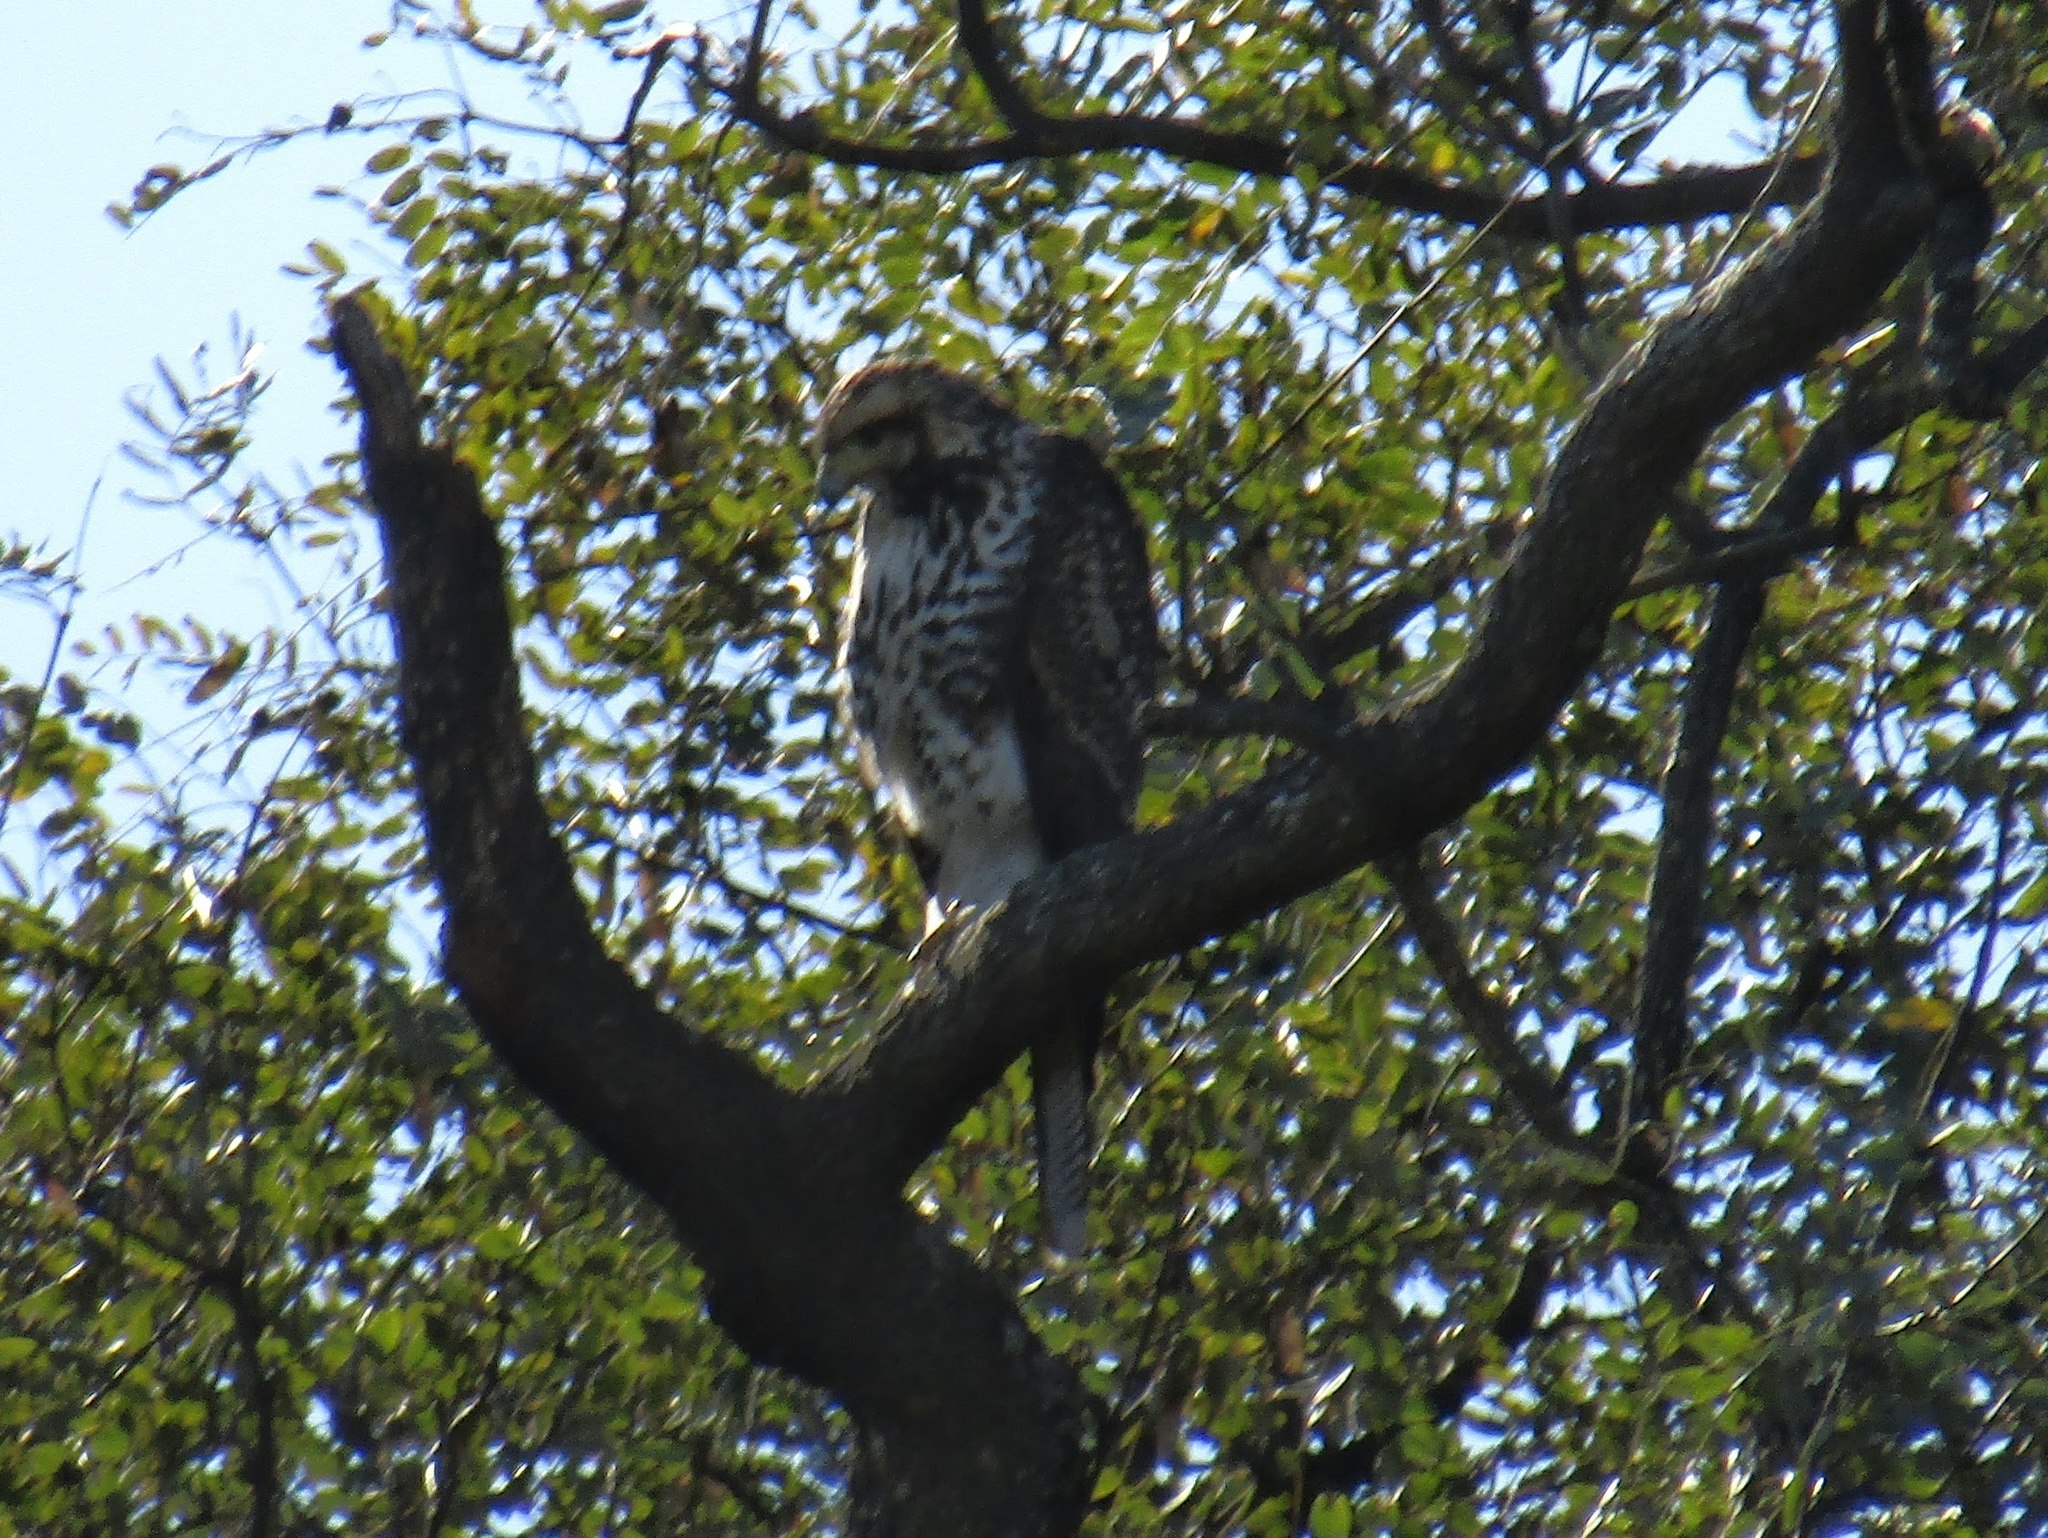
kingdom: Animalia
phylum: Chordata
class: Aves
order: Accipitriformes
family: Accipitridae
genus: Parabuteo
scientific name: Parabuteo unicinctus
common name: Harris's hawk
